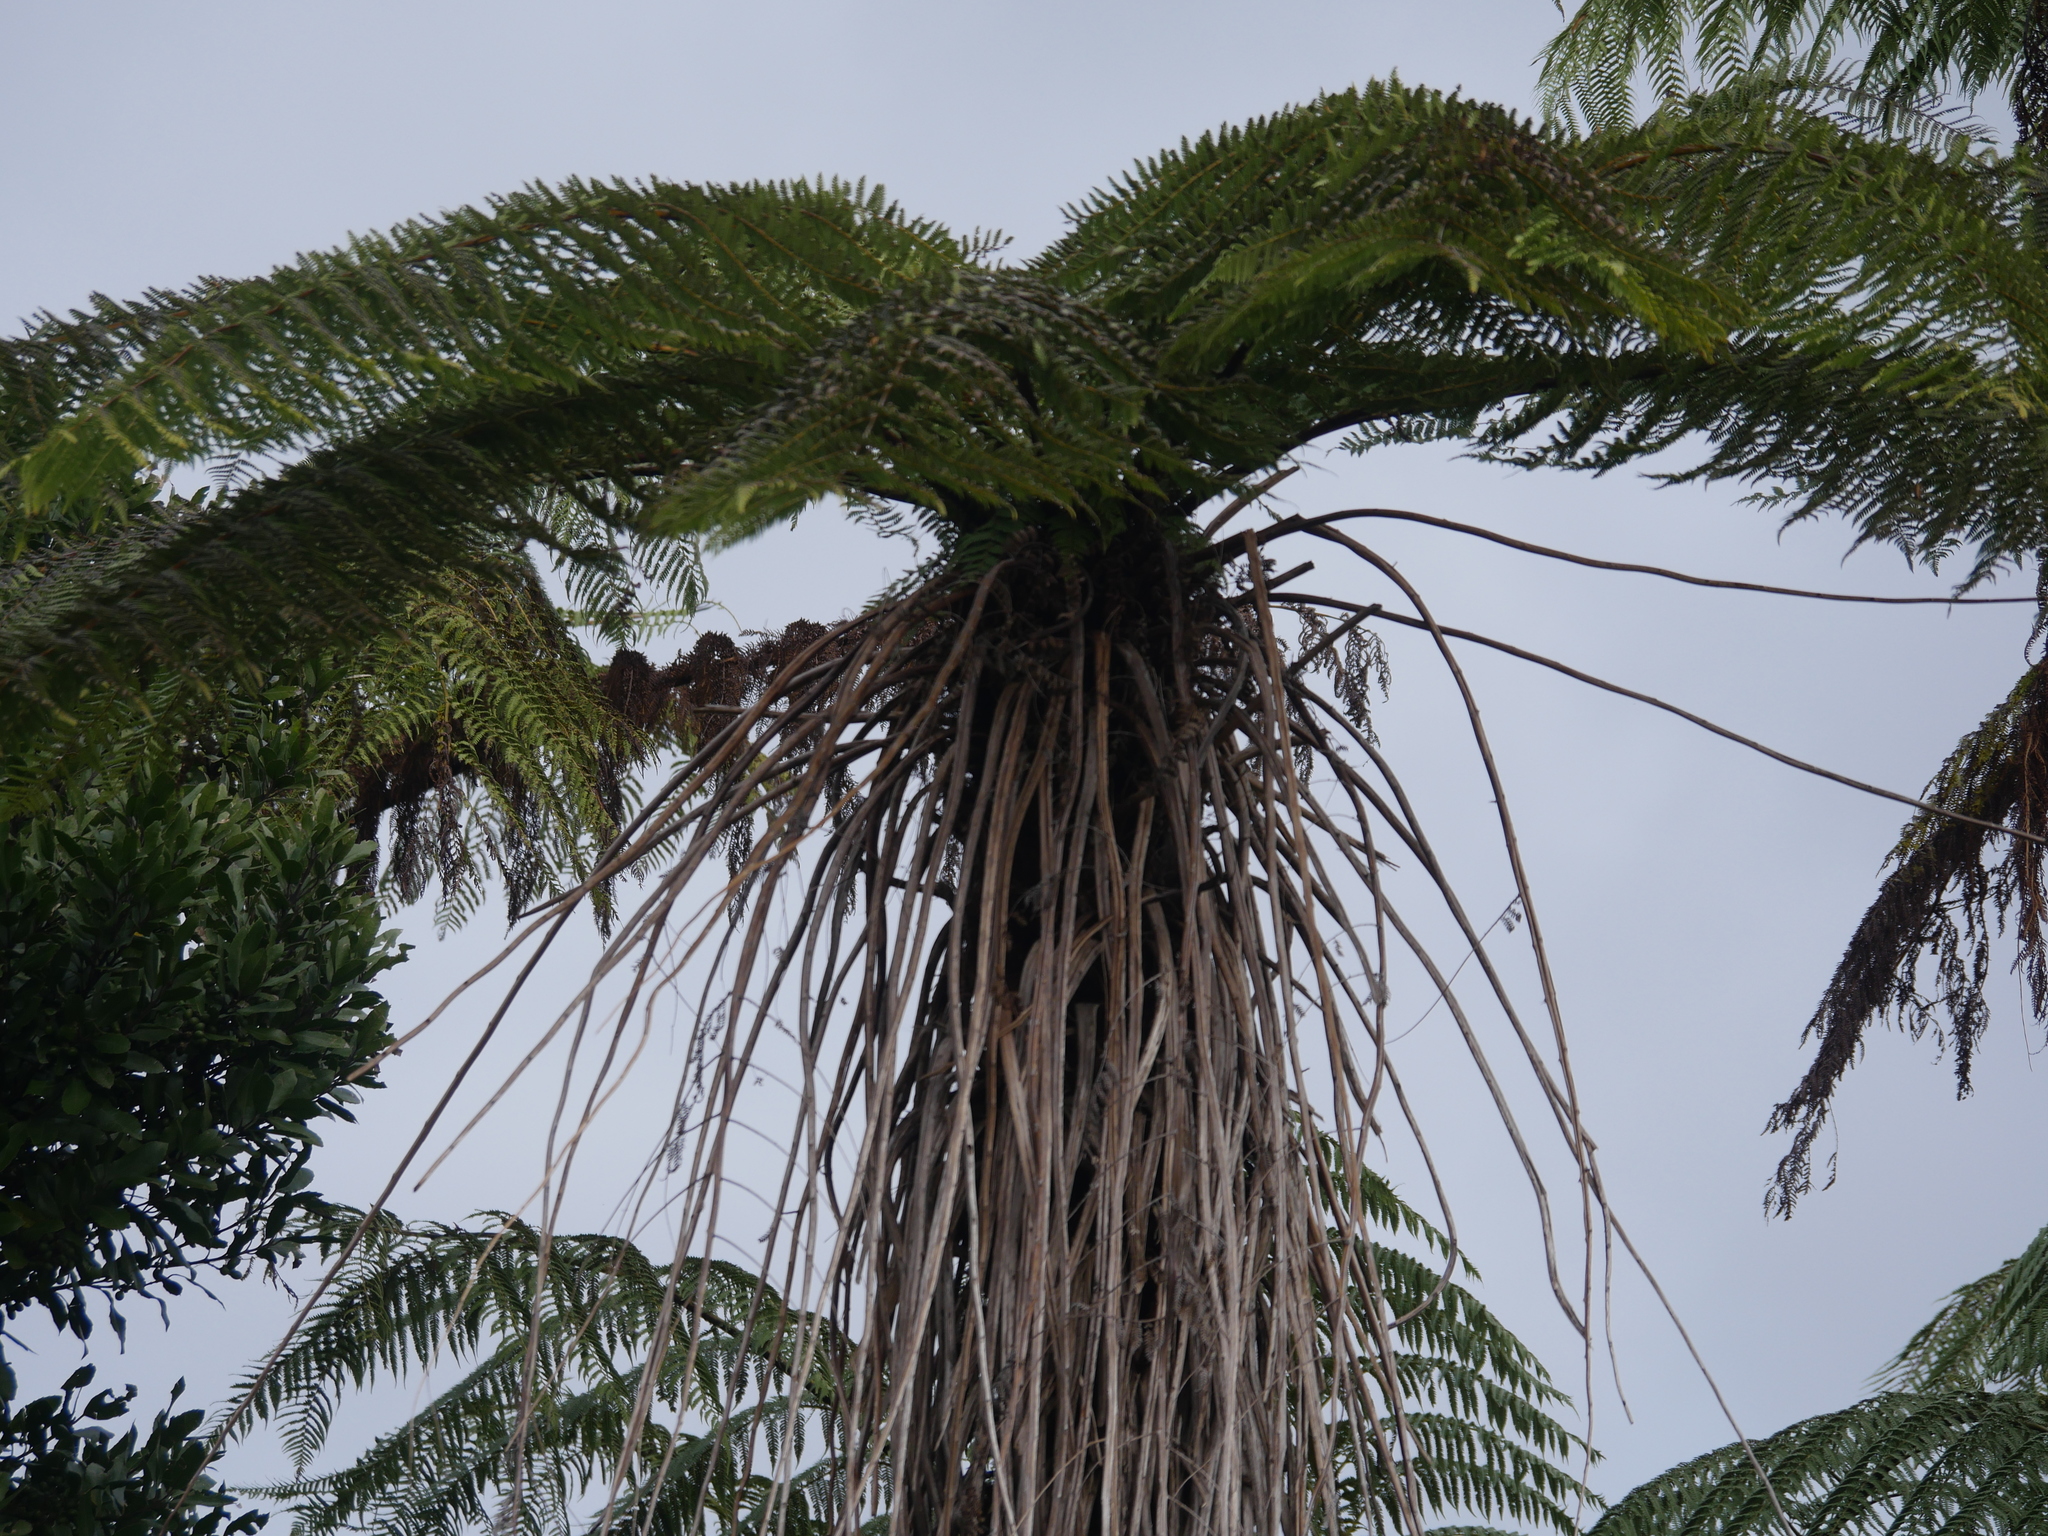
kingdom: Plantae
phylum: Tracheophyta
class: Polypodiopsida
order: Cyatheales
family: Cyatheaceae
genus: Alsophila
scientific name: Alsophila smithii
